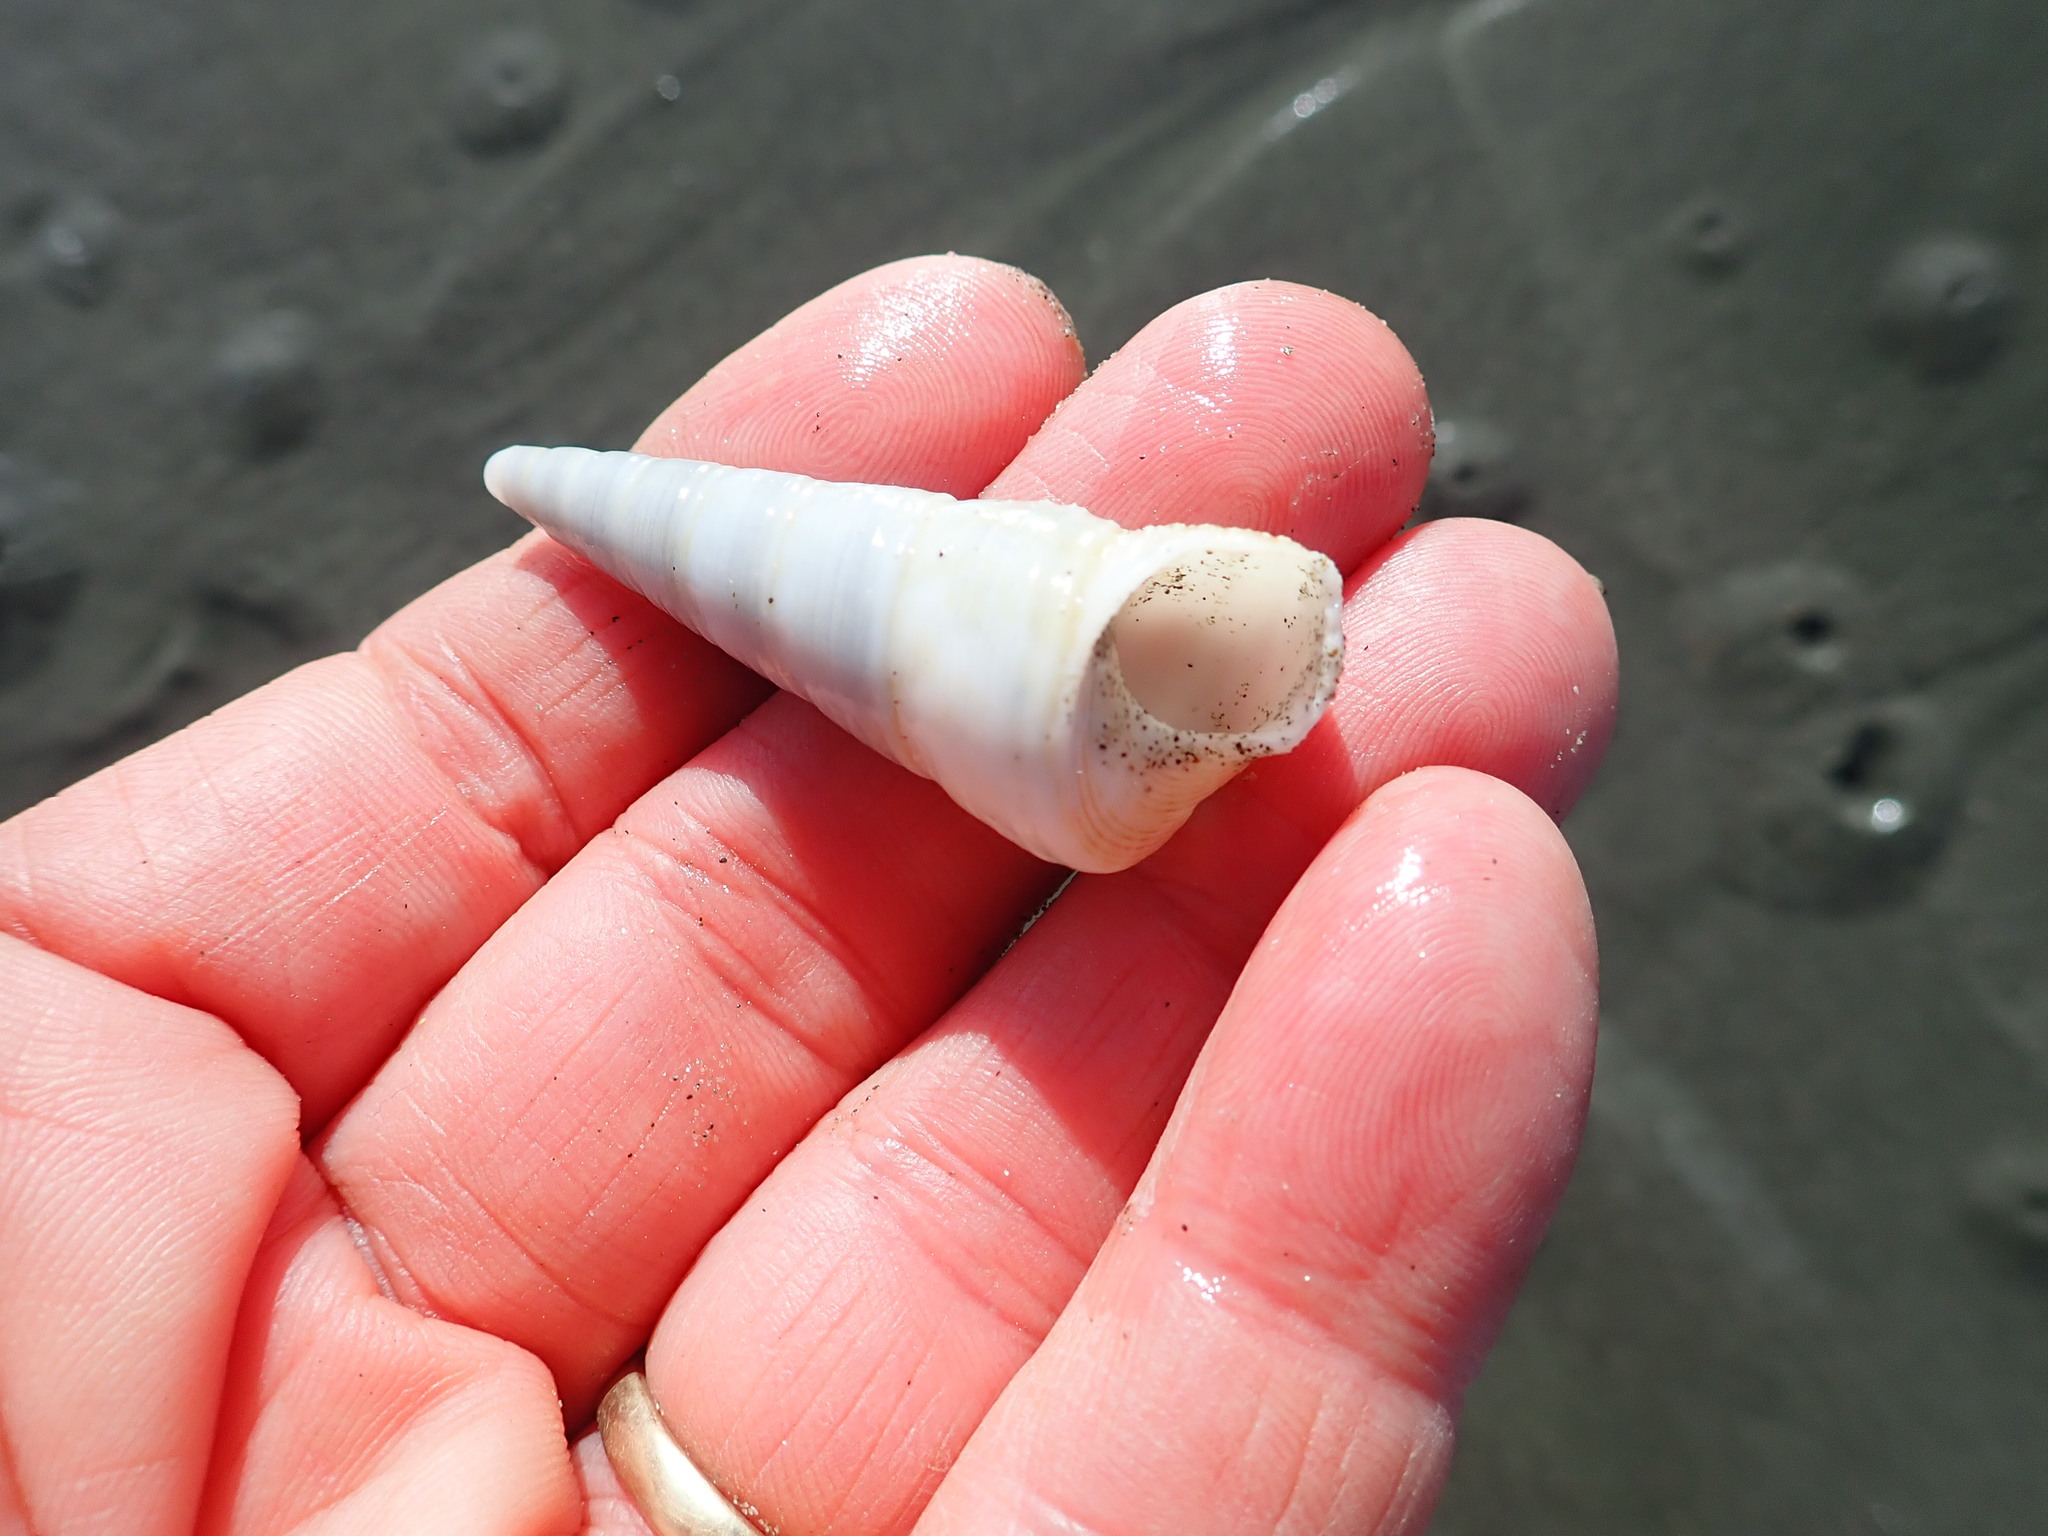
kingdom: Animalia
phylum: Mollusca
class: Gastropoda
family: Turritellidae
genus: Maoricolpus
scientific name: Maoricolpus roseus
